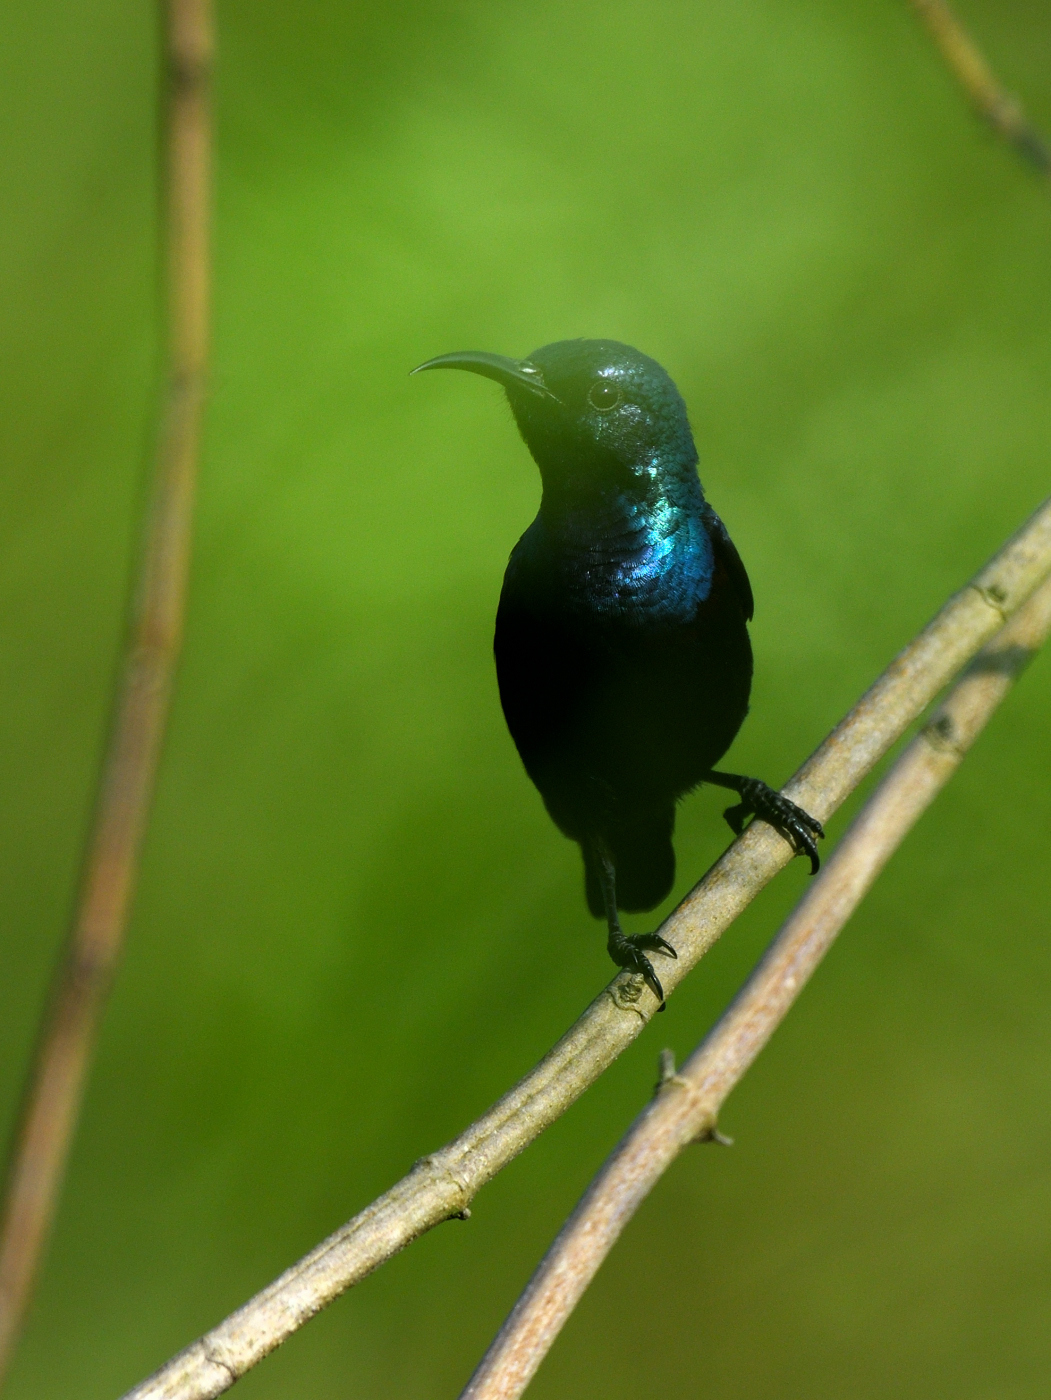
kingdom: Animalia
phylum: Chordata
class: Aves
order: Passeriformes
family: Nectariniidae
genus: Cinnyris
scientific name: Cinnyris asiaticus
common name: Purple sunbird
